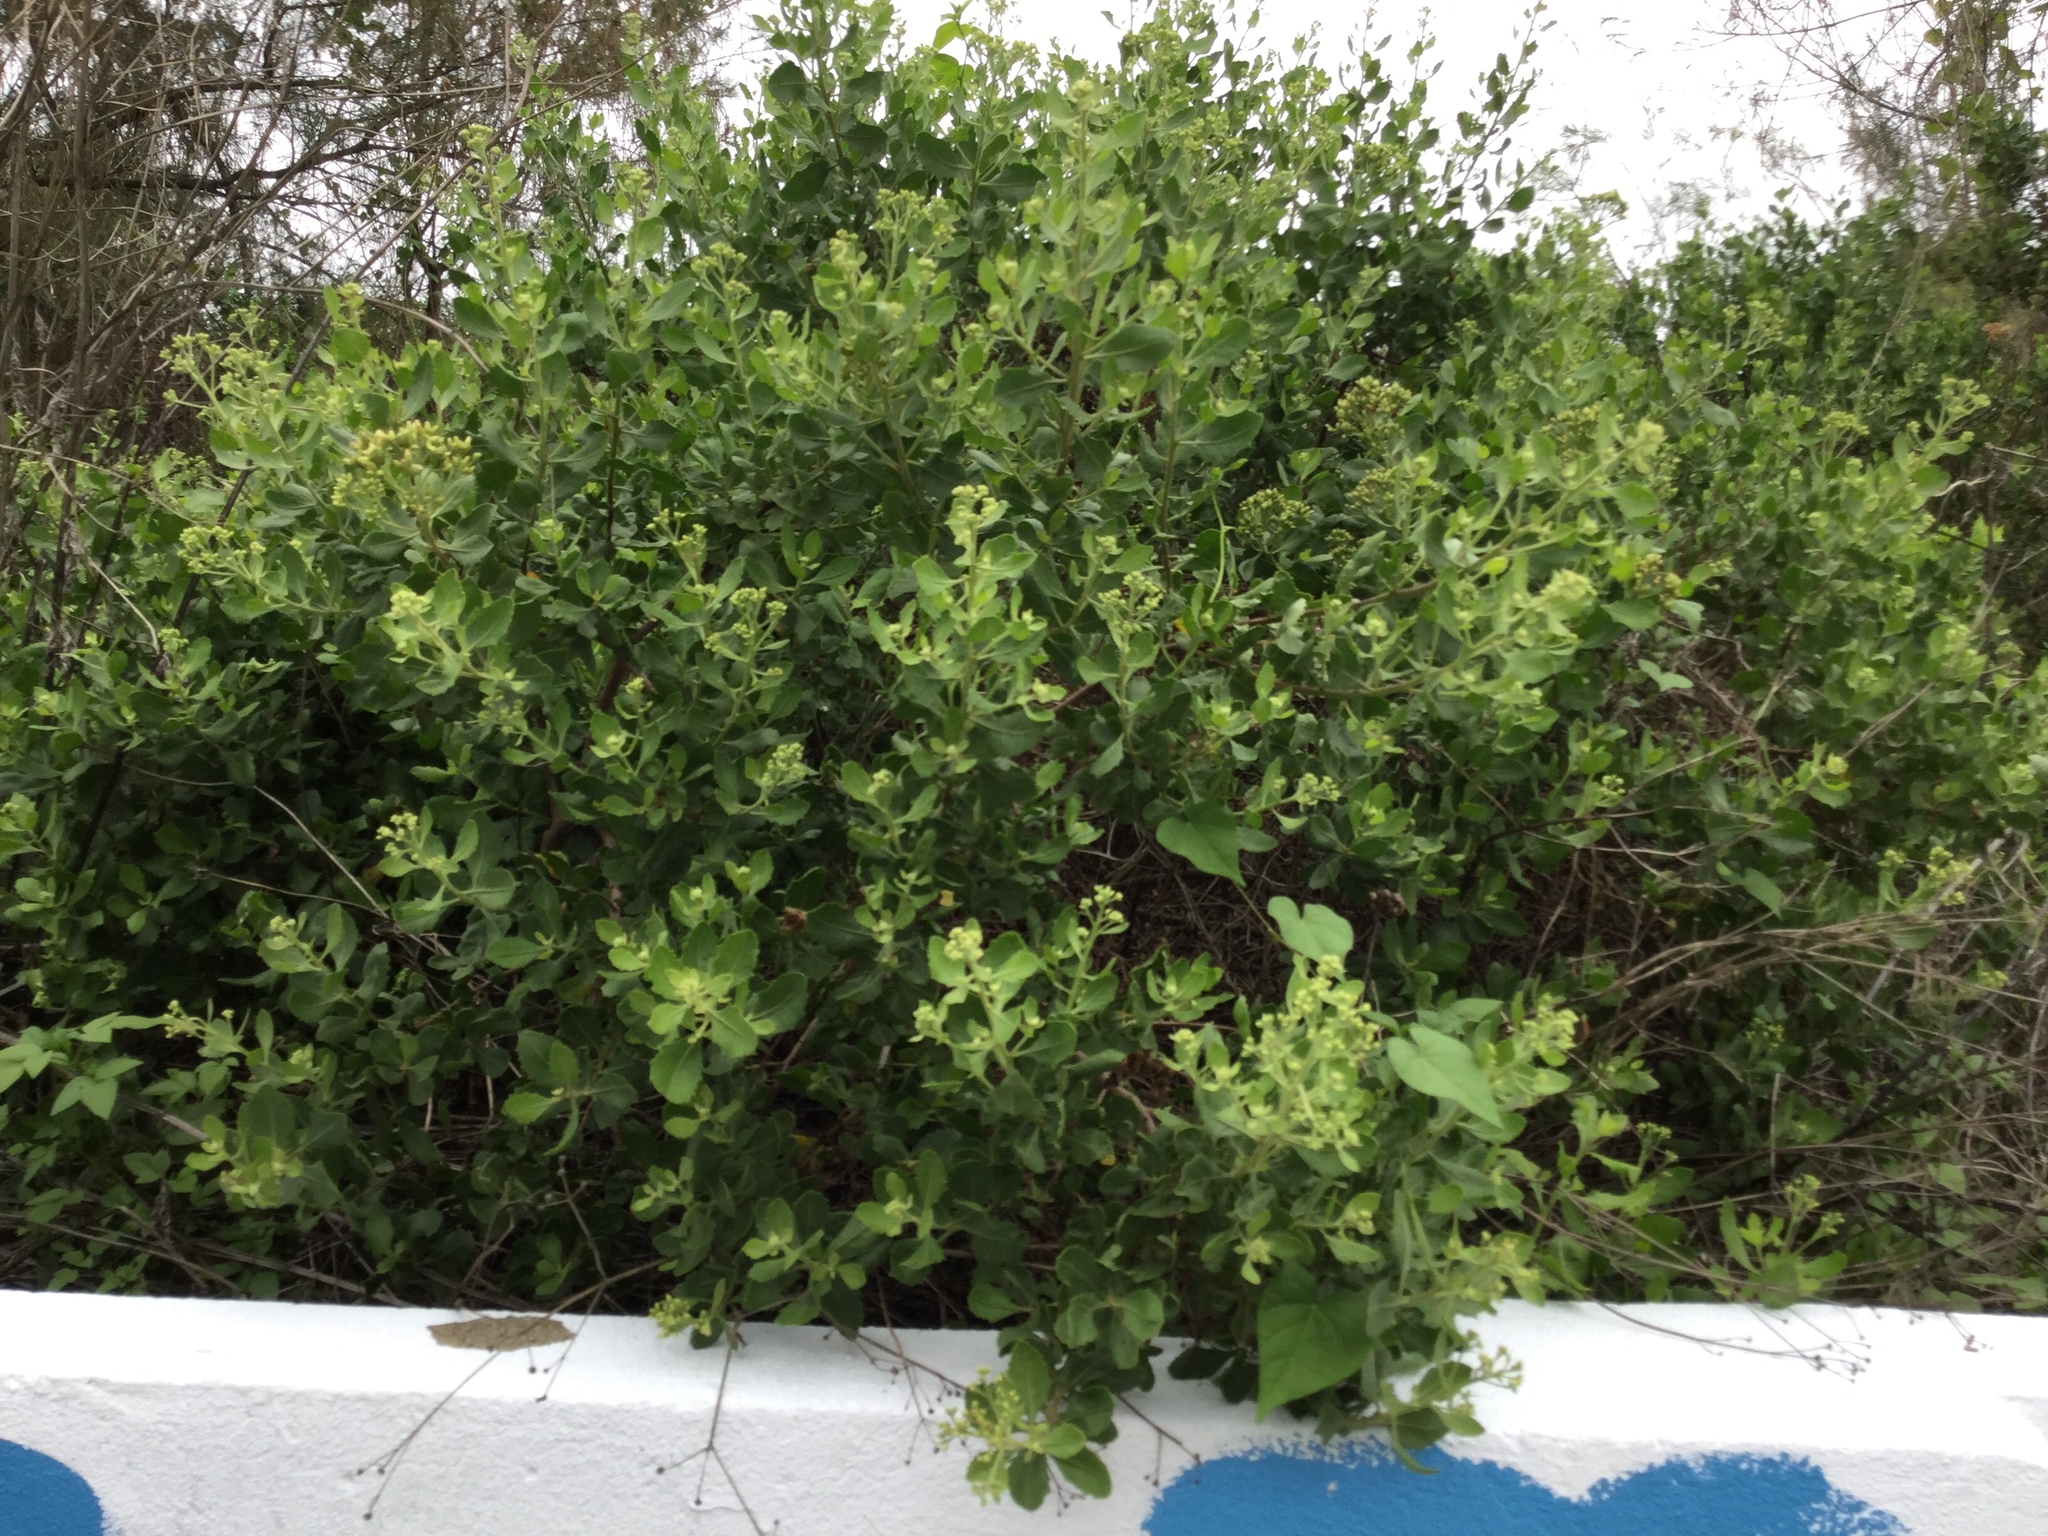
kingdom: Plantae
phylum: Tracheophyta
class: Magnoliopsida
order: Asterales
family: Asteraceae
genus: Pluchea
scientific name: Pluchea indica
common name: Indian fleabane
